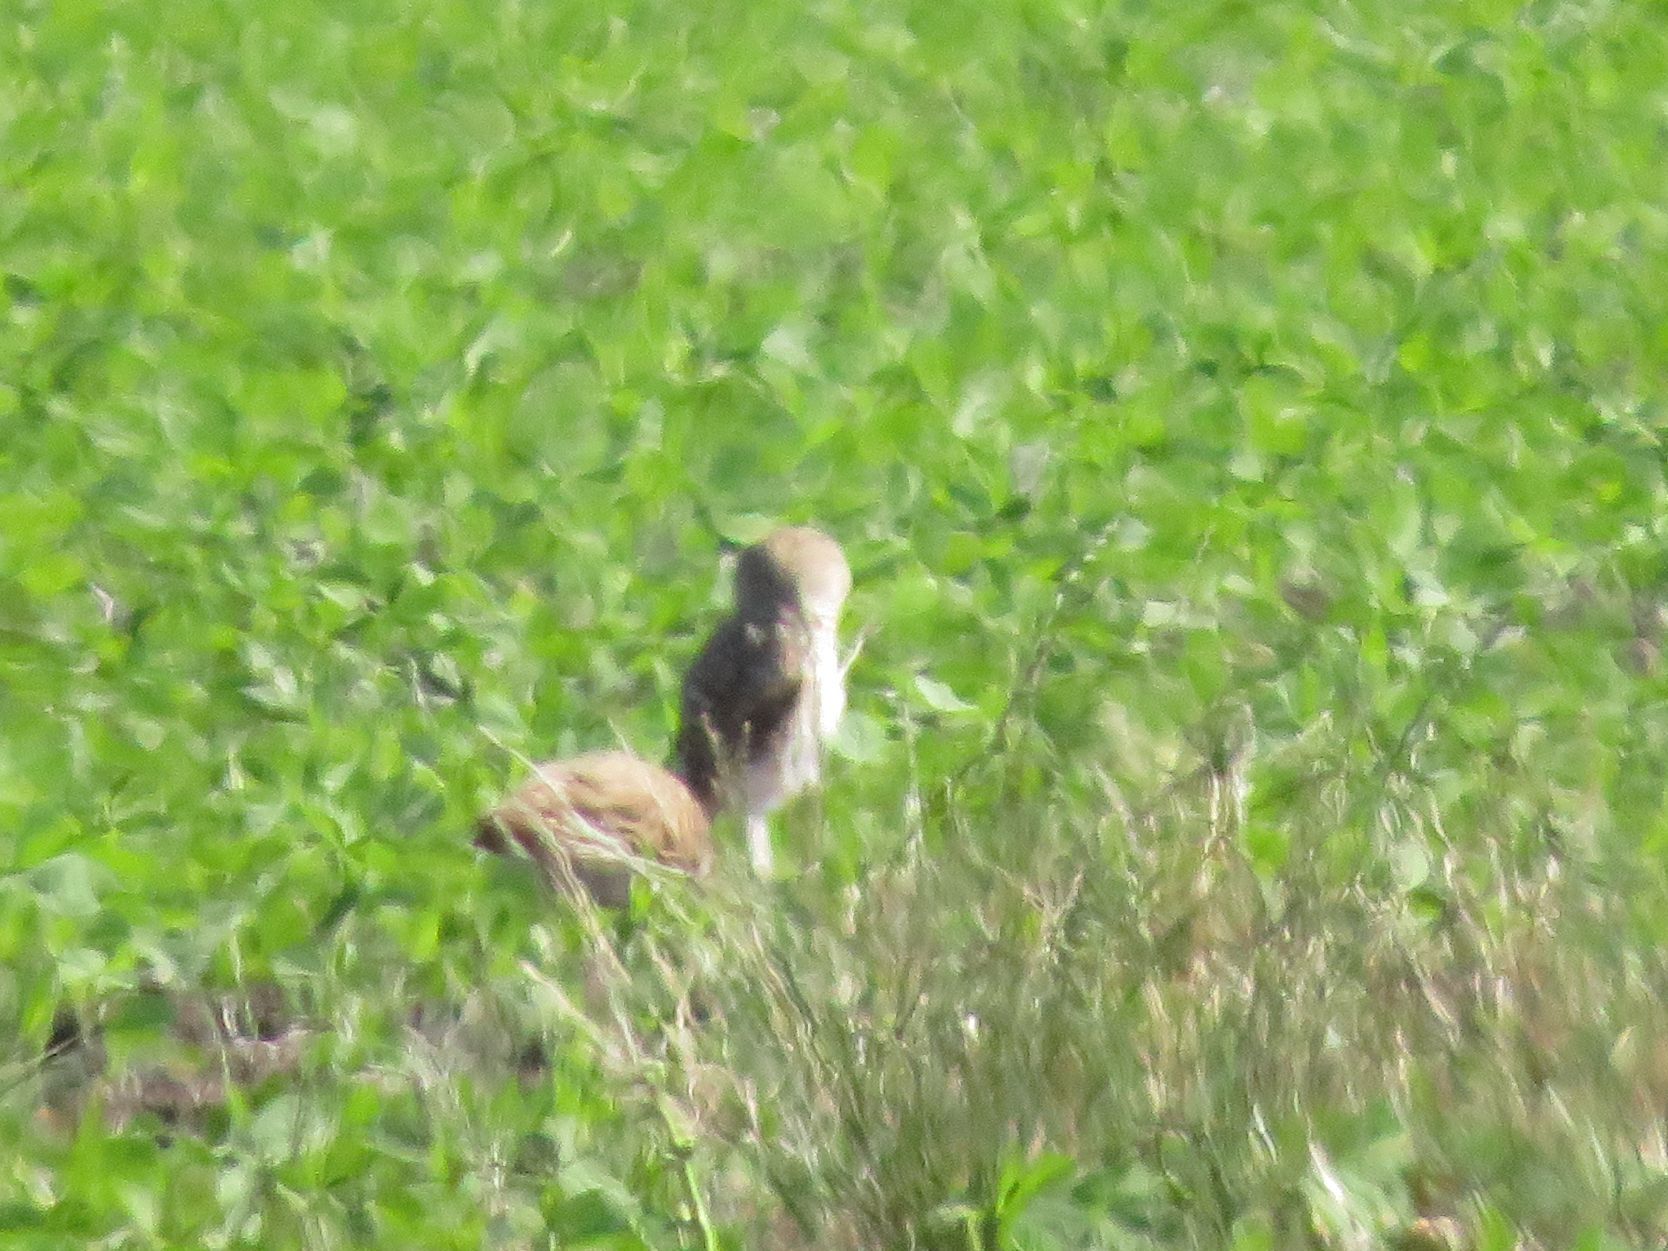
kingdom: Animalia
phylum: Chordata
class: Aves
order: Strigiformes
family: Strigidae
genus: Athene
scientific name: Athene cunicularia
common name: Burrowing owl
